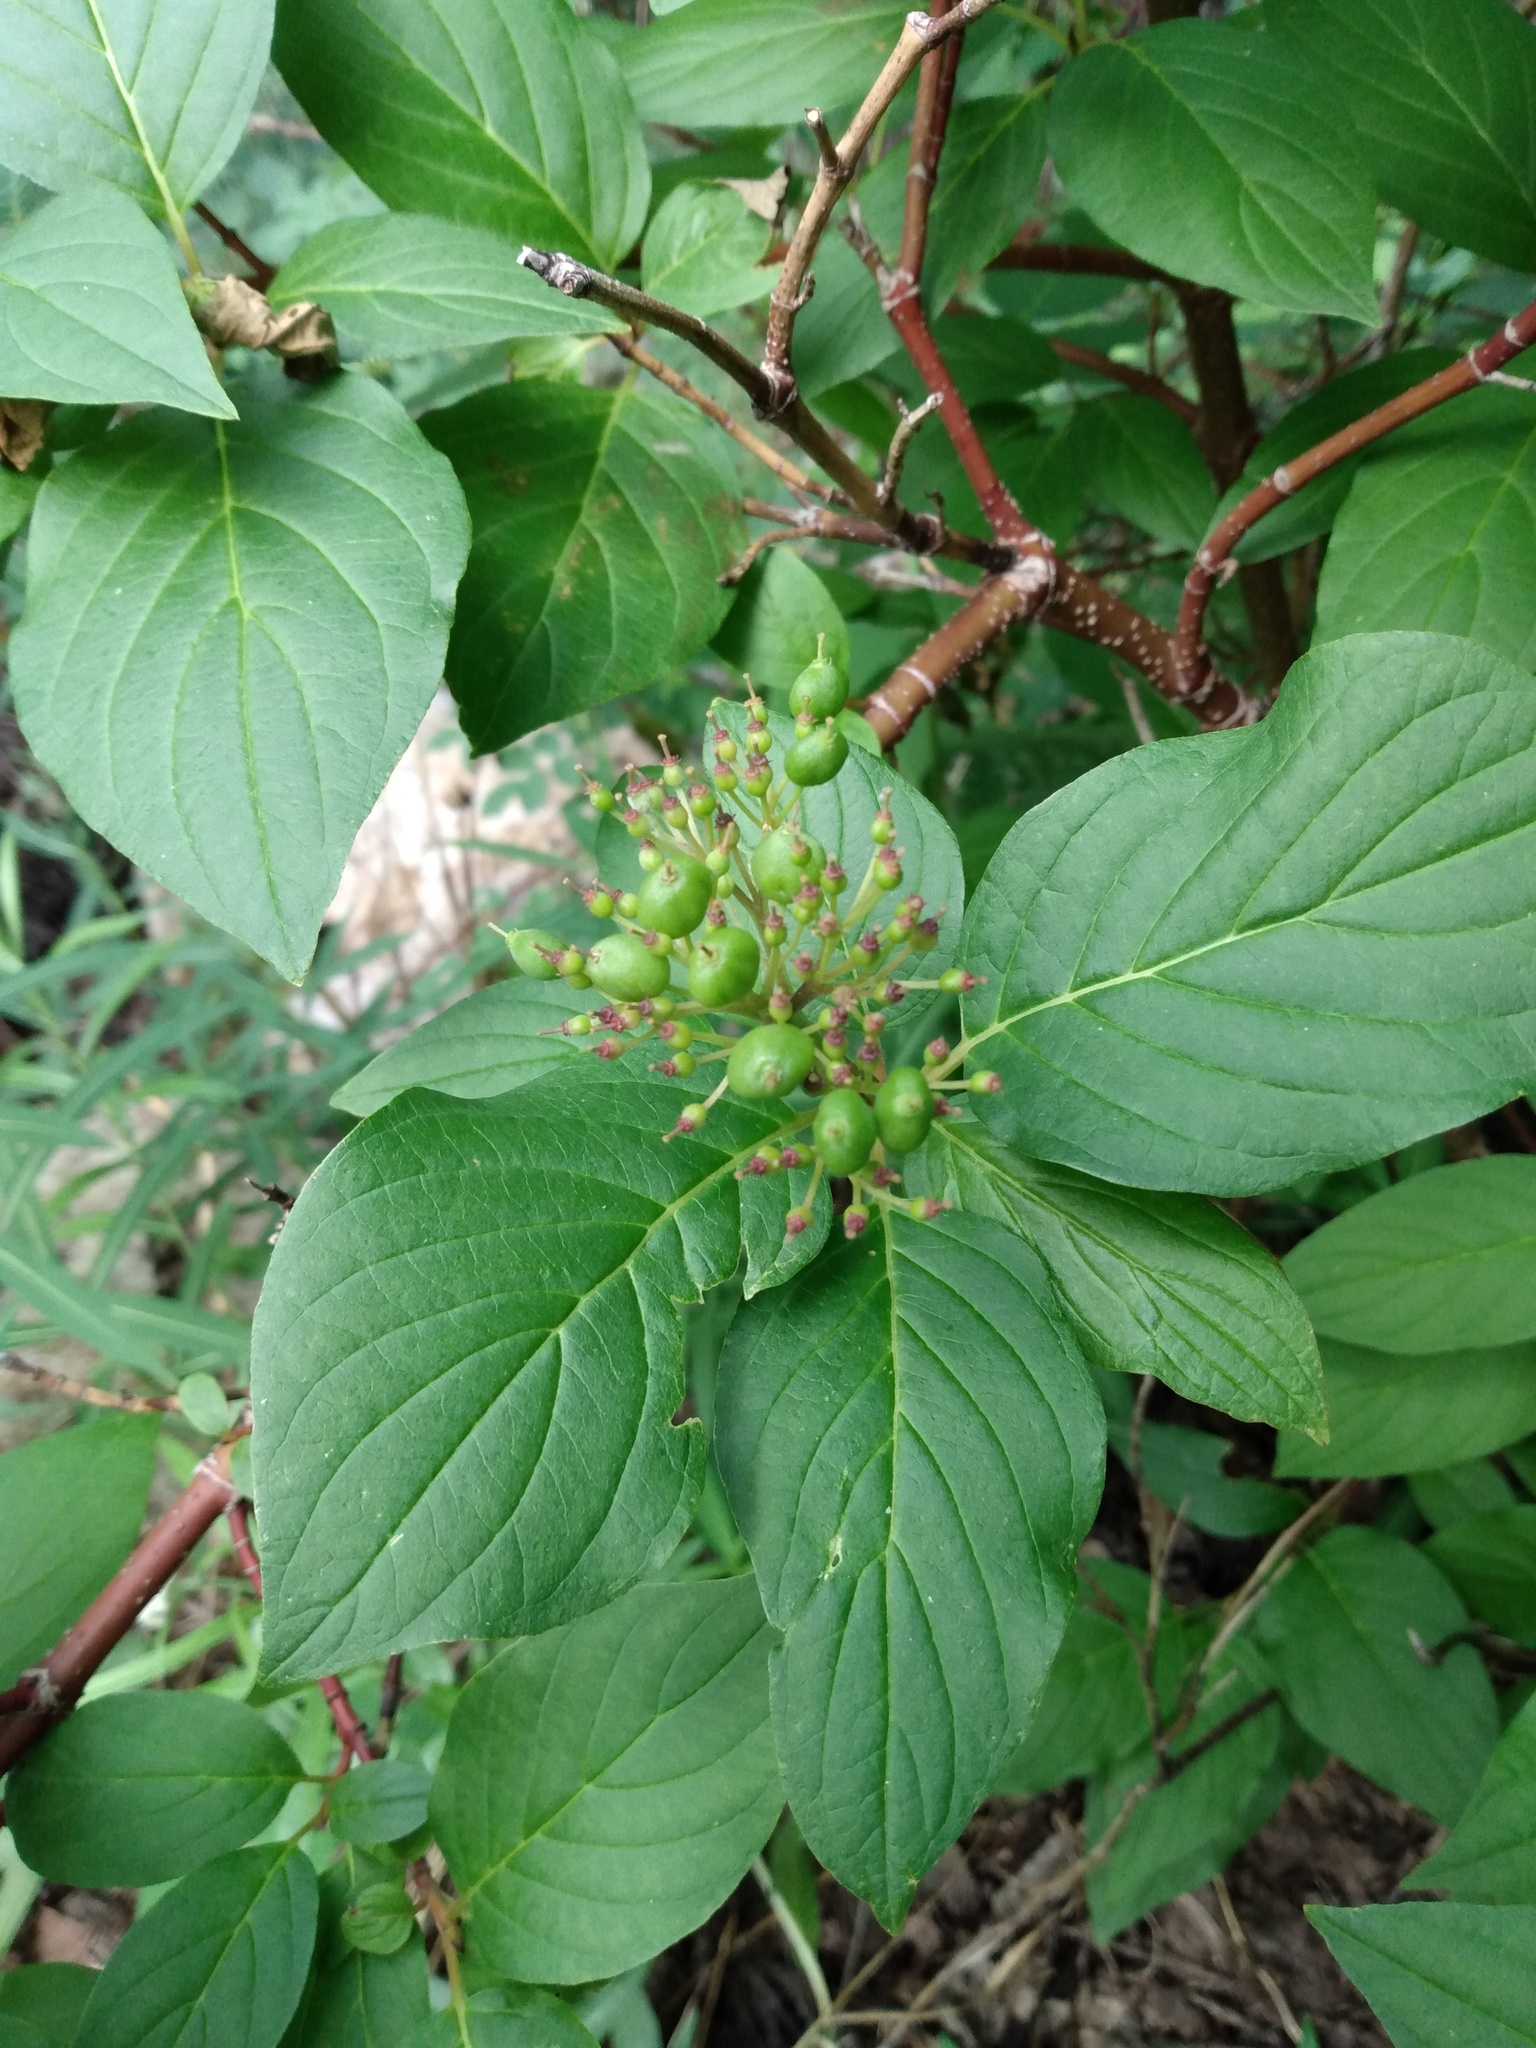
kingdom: Plantae
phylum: Tracheophyta
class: Magnoliopsida
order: Cornales
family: Cornaceae
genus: Cornus
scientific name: Cornus sericea
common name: Red-osier dogwood
